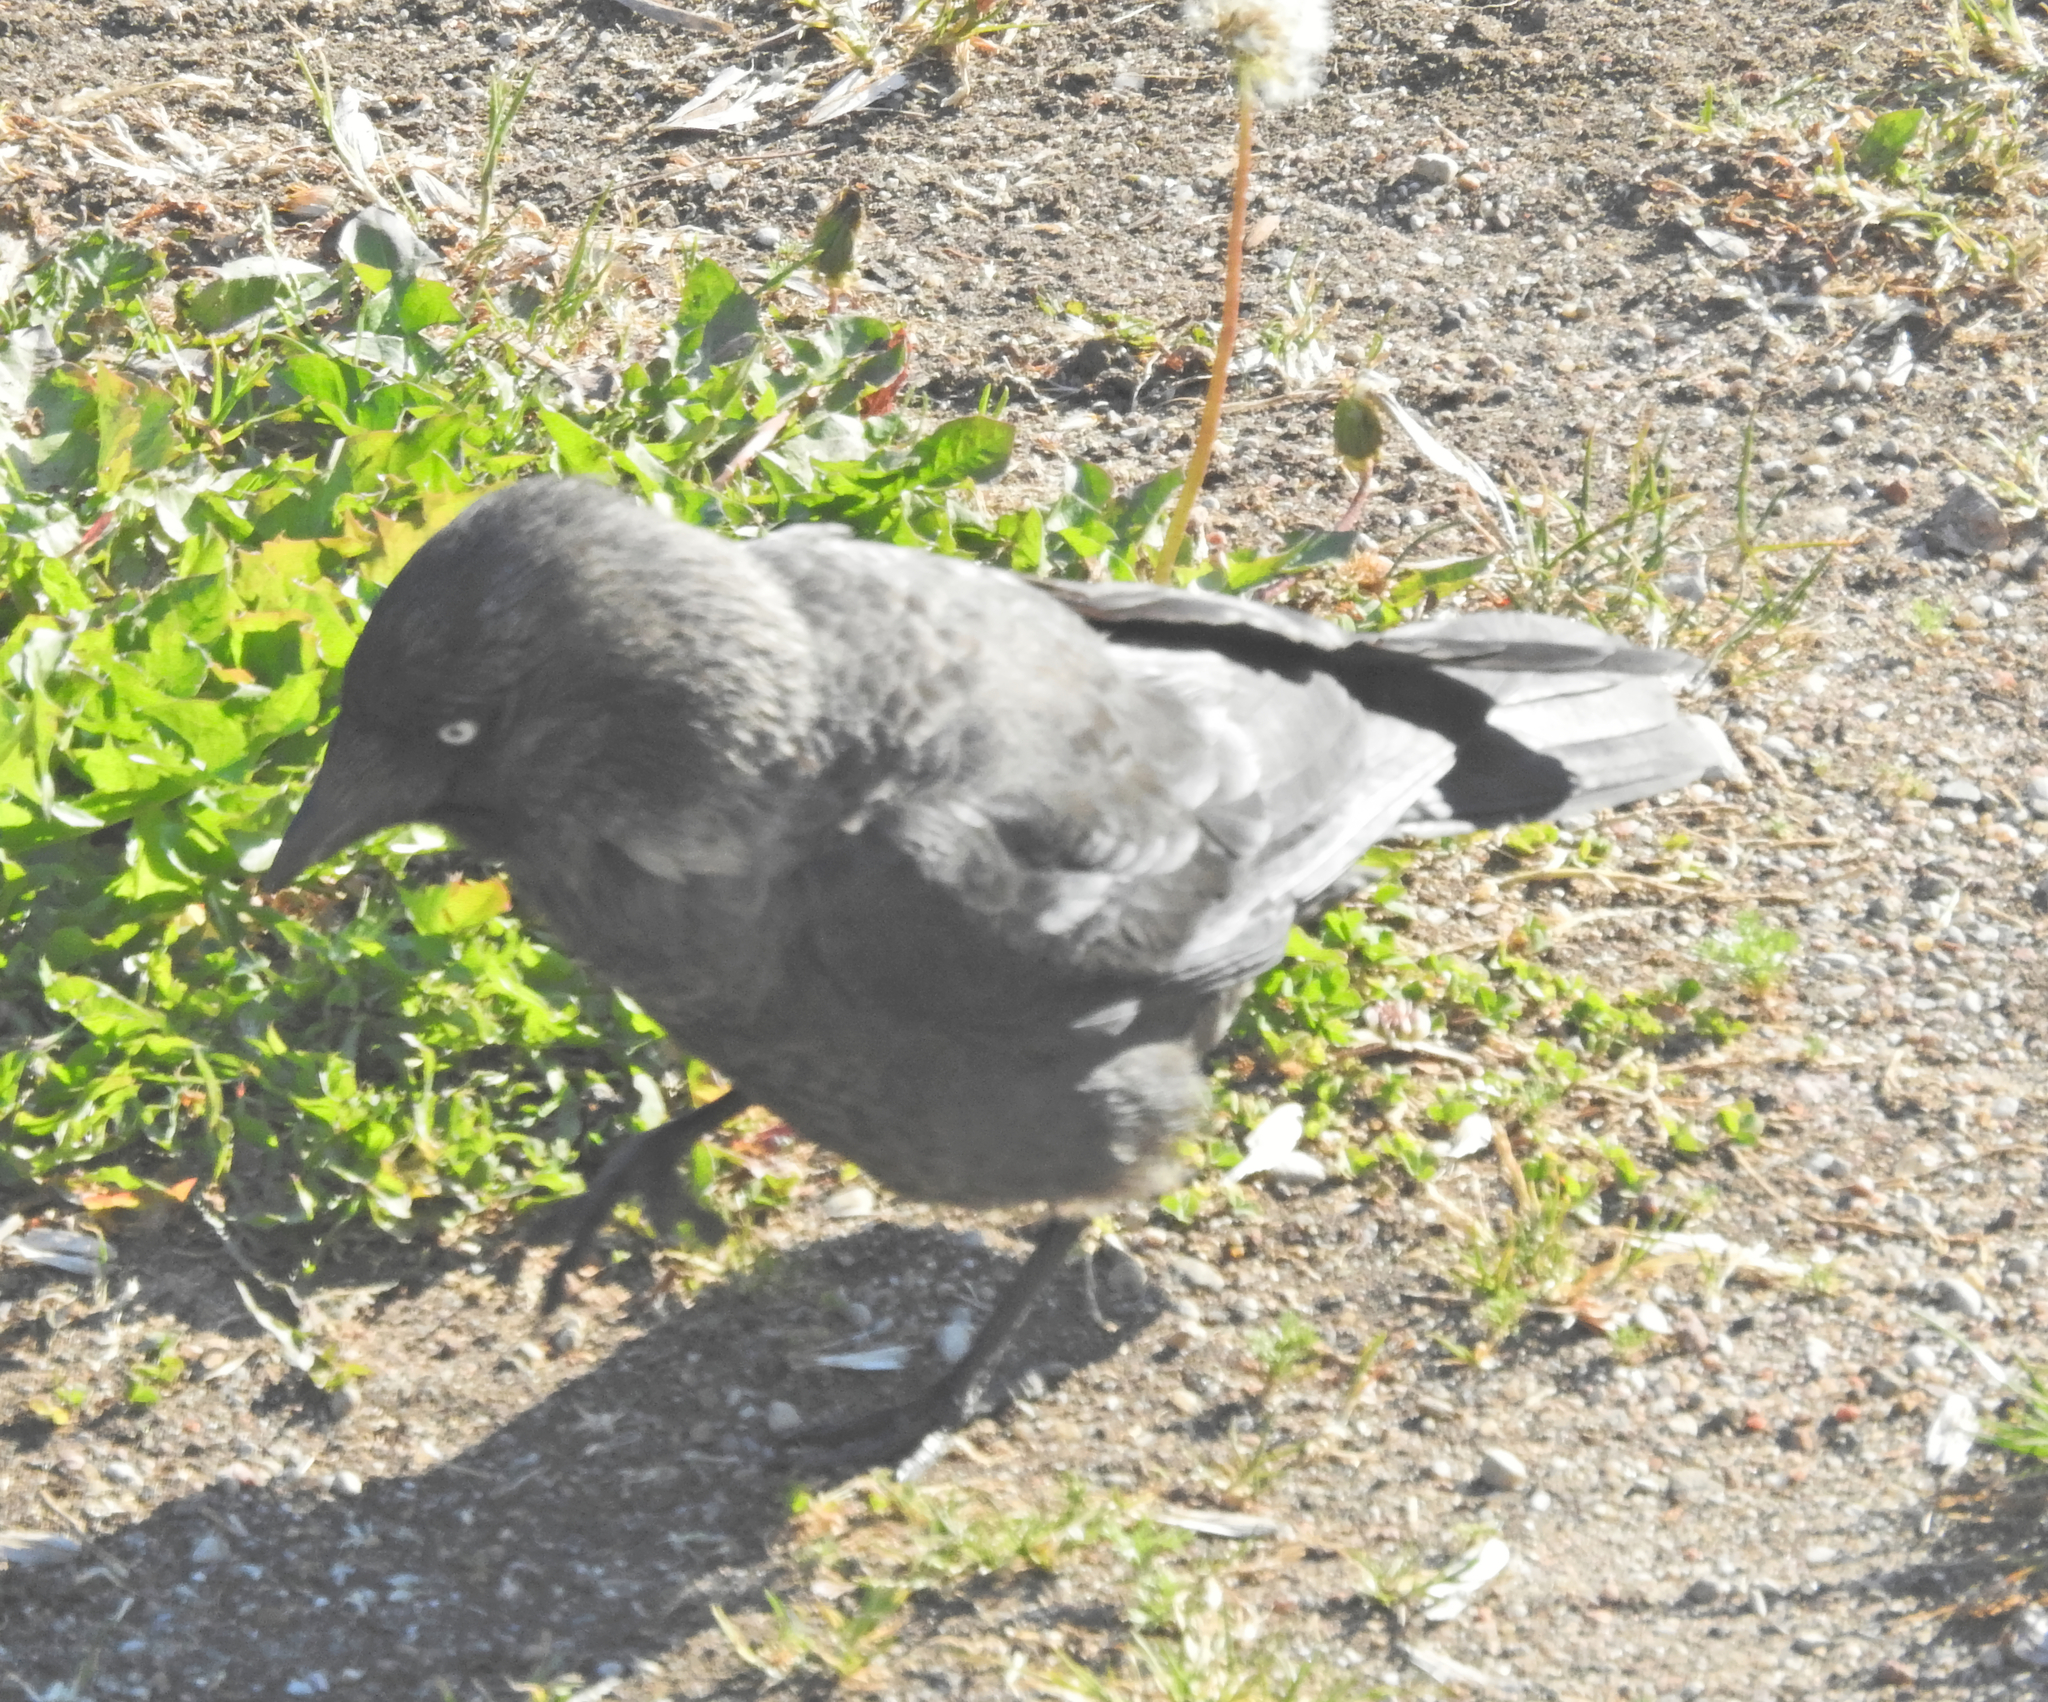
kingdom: Animalia
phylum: Chordata
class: Aves
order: Passeriformes
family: Corvidae
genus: Coloeus
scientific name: Coloeus monedula
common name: Western jackdaw
